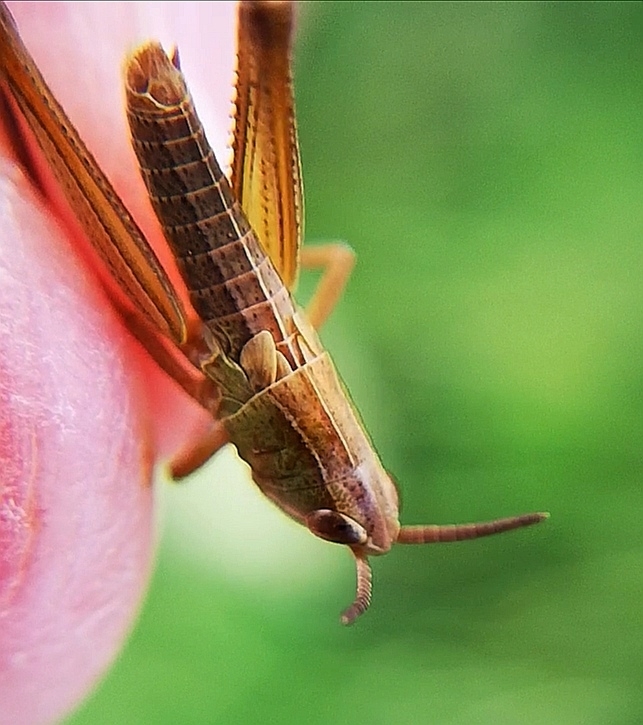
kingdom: Animalia
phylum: Arthropoda
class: Insecta
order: Orthoptera
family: Acrididae
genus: Pseudochorthippus
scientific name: Pseudochorthippus parallelus
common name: Meadow grasshopper
